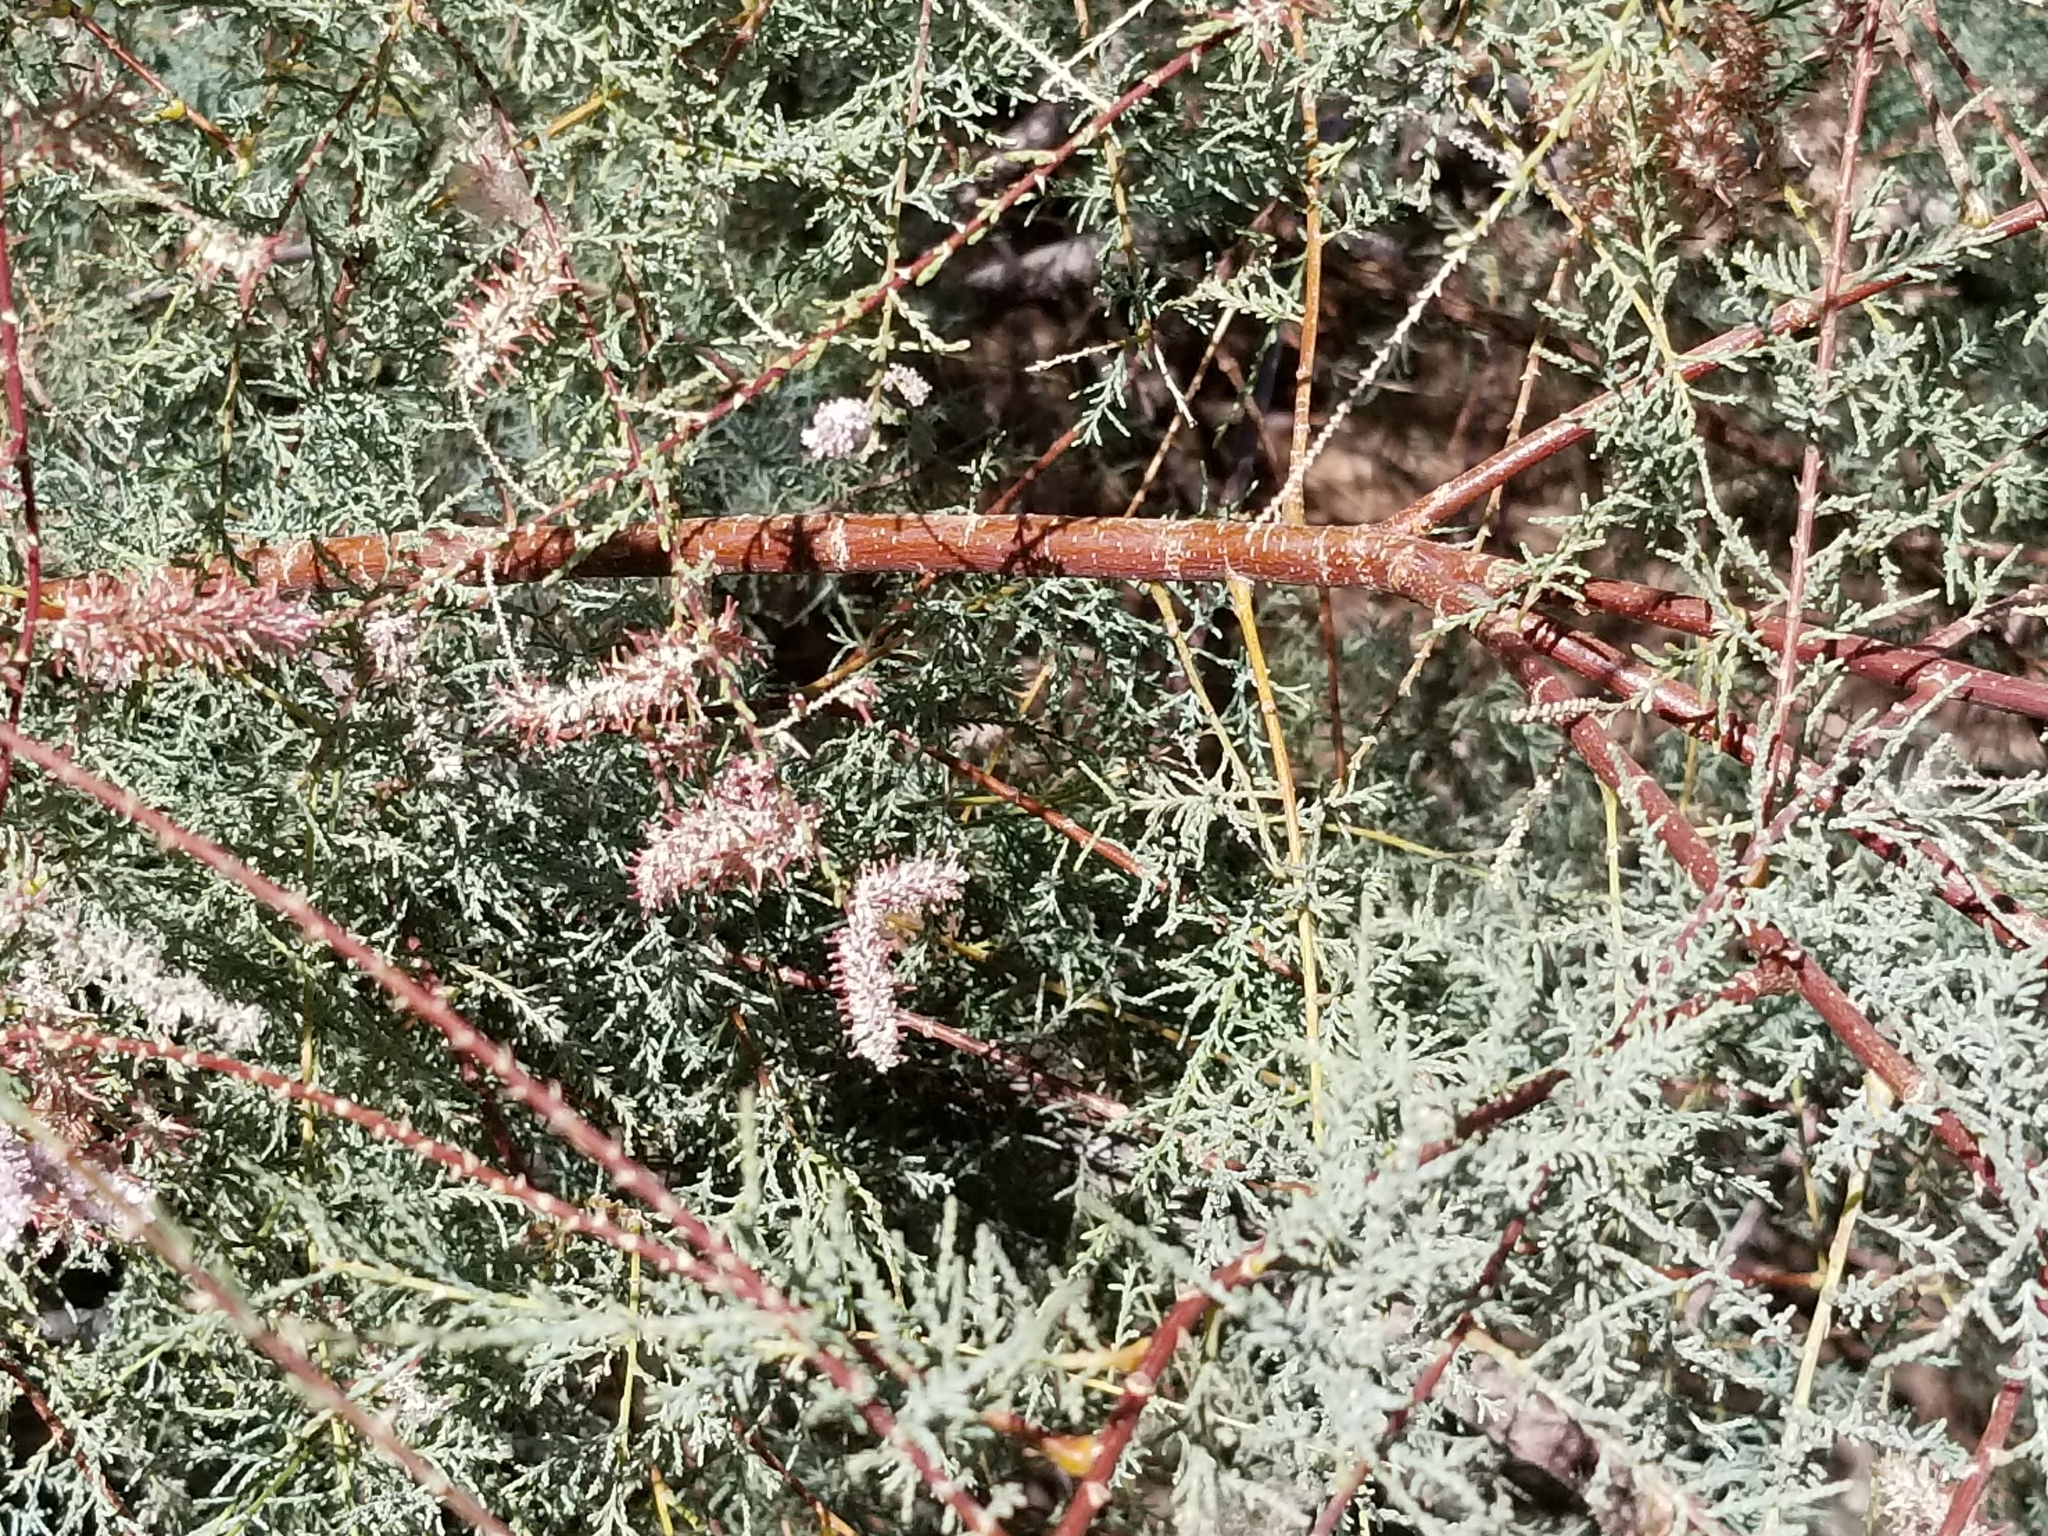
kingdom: Plantae
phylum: Tracheophyta
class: Magnoliopsida
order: Caryophyllales
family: Tamaricaceae
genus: Tamarix
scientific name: Tamarix ramosissima
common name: Pink tamarisk
